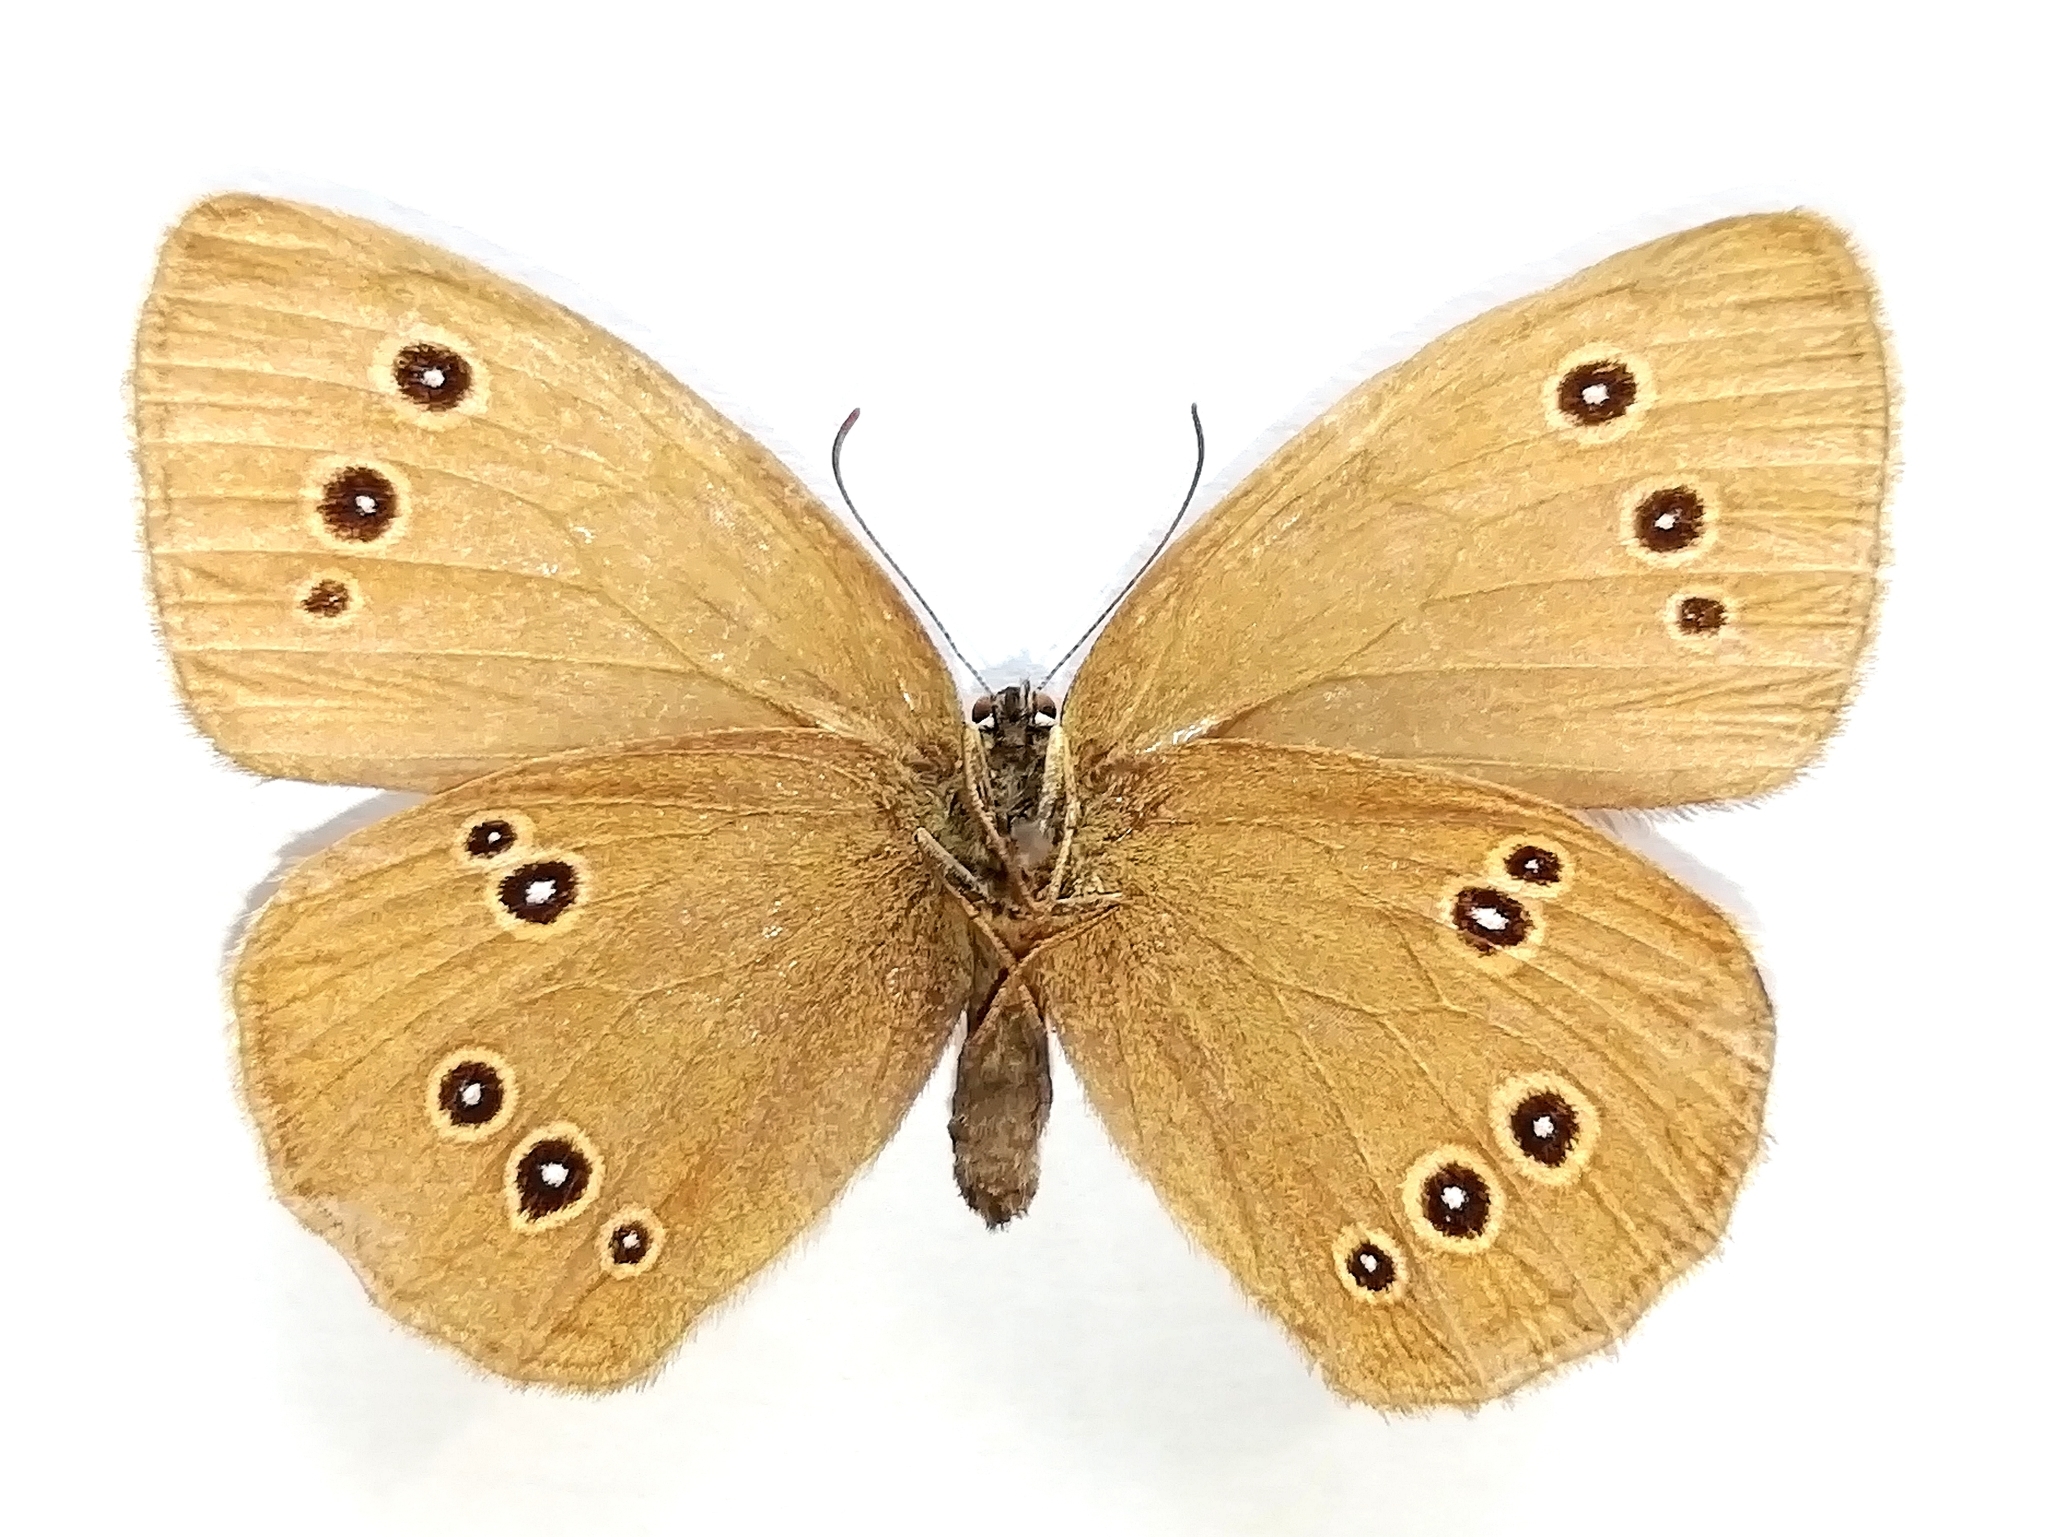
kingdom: Animalia
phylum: Arthropoda
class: Insecta
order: Lepidoptera
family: Nymphalidae
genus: Aphantopus
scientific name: Aphantopus hyperantus
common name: Ringlet
